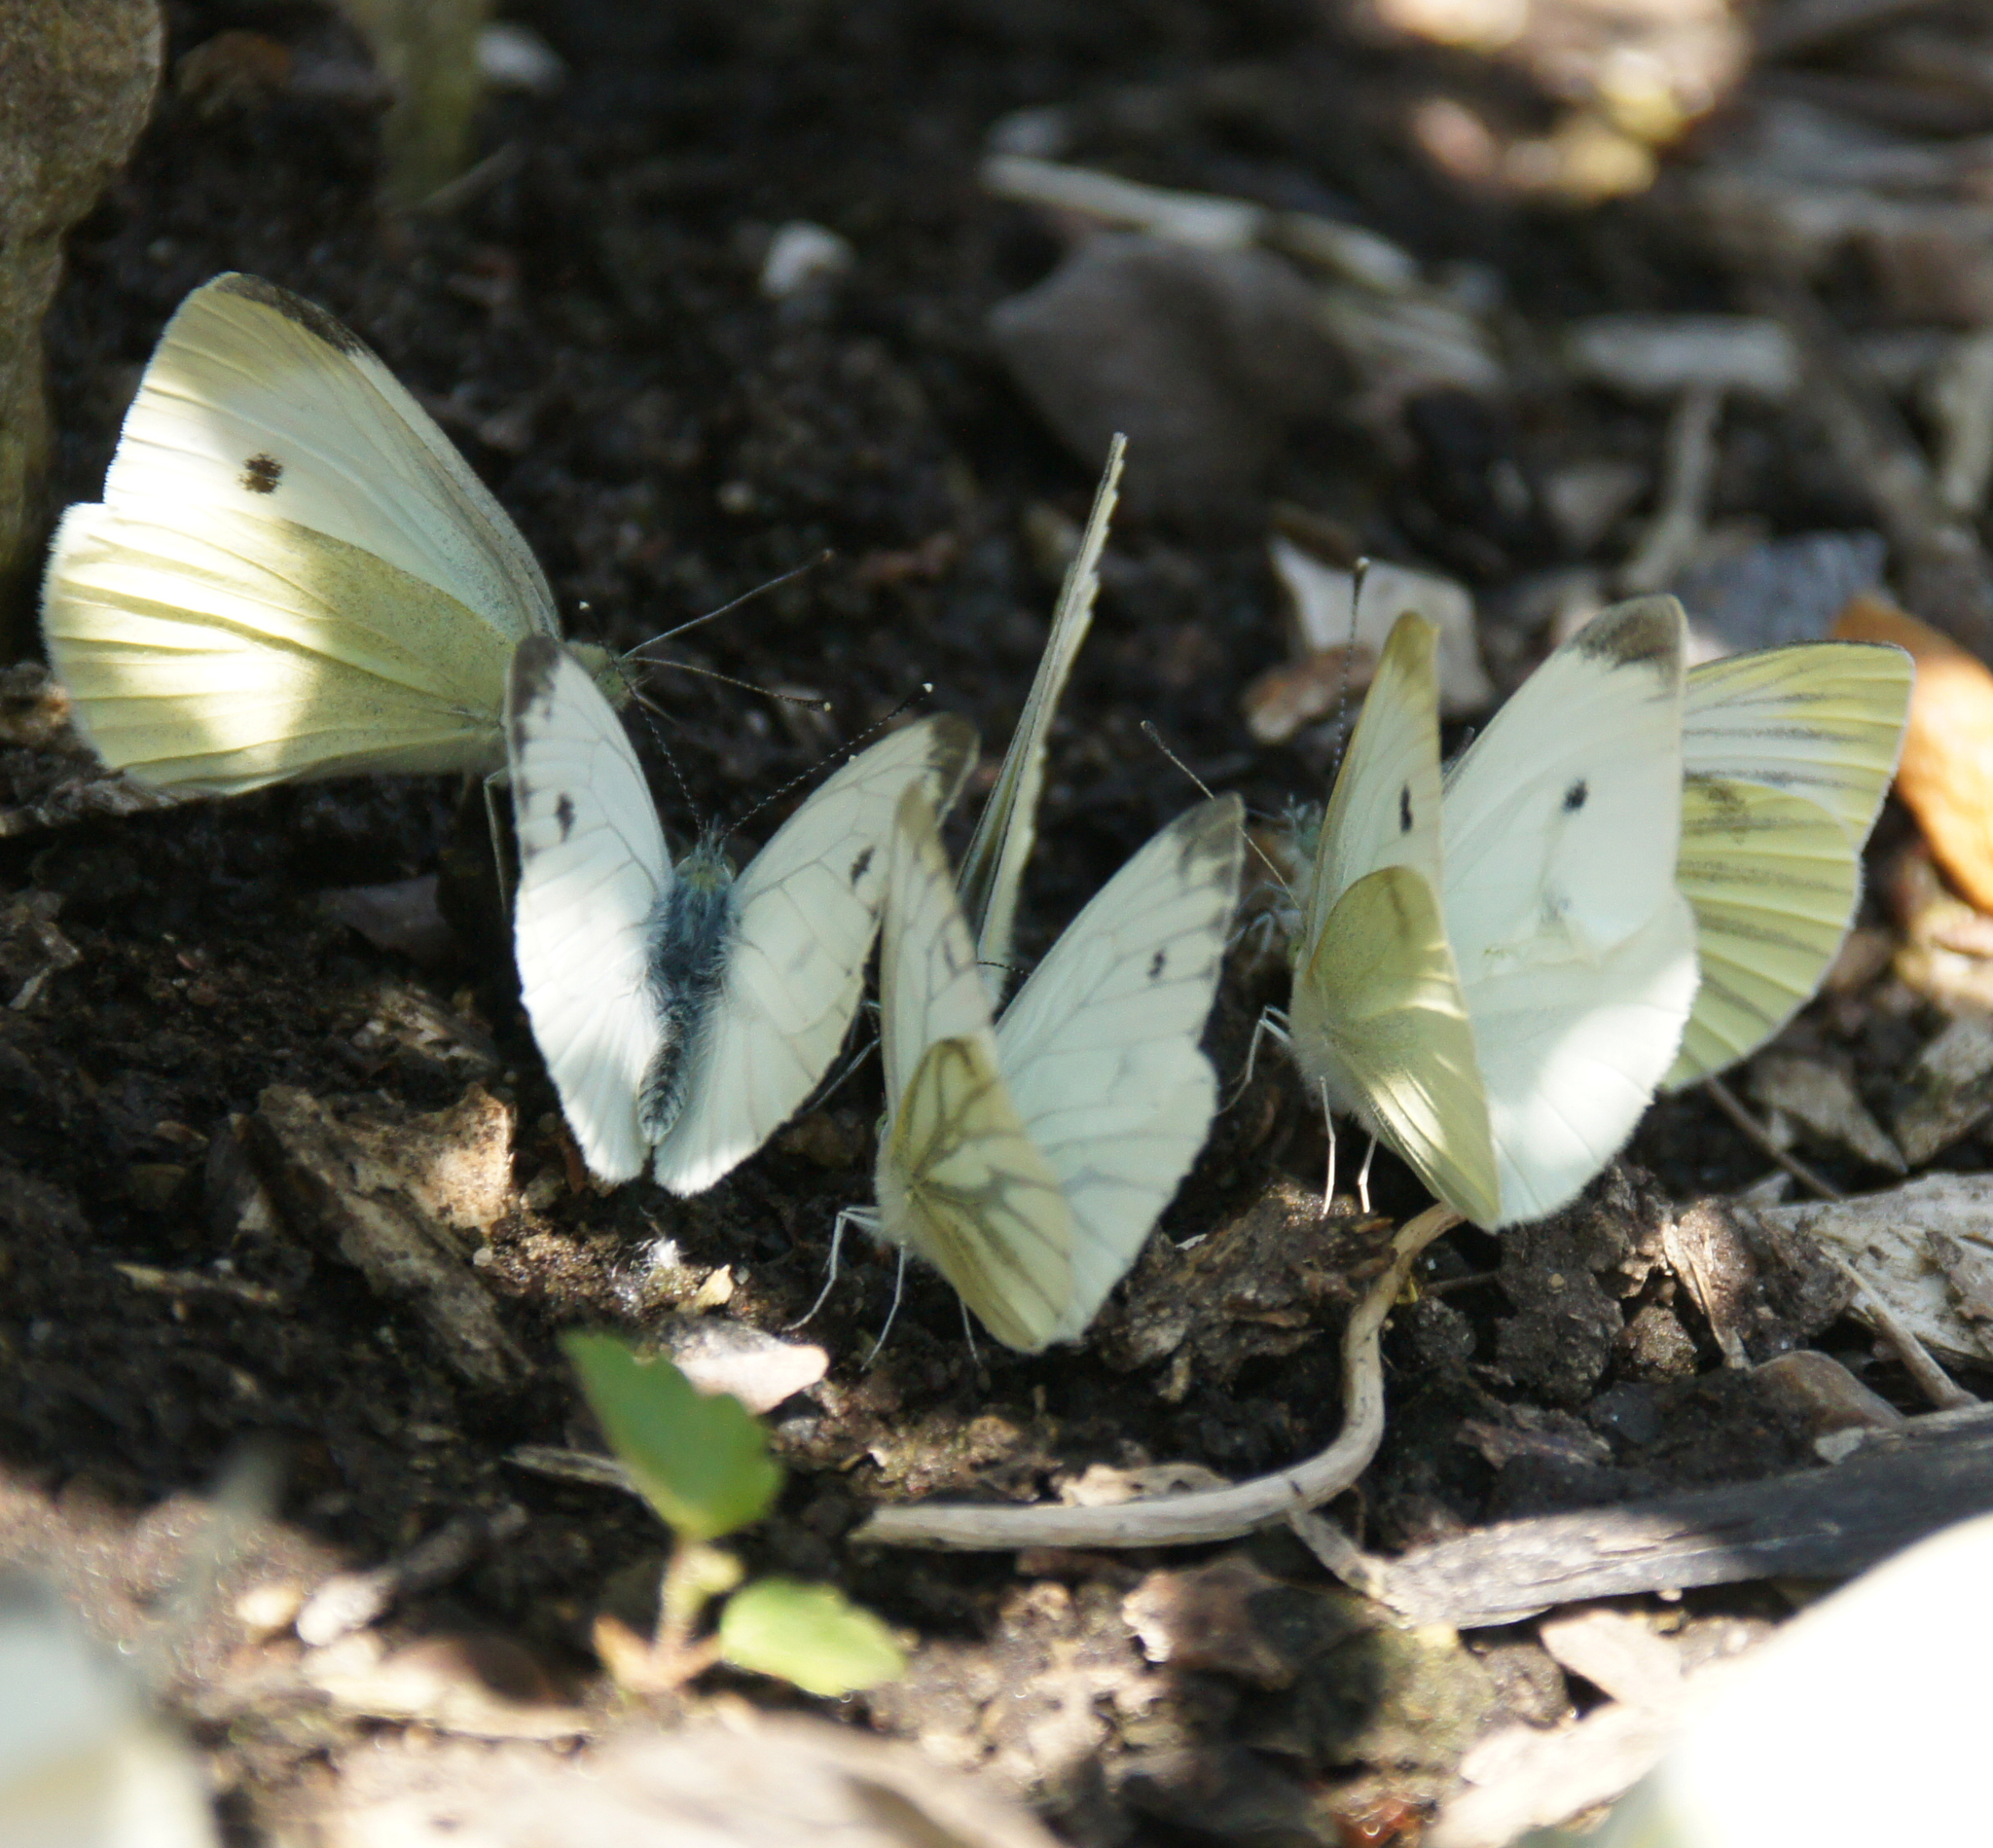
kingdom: Animalia
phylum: Arthropoda
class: Insecta
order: Lepidoptera
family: Pieridae
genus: Pieris
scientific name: Pieris rapae
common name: Small white
